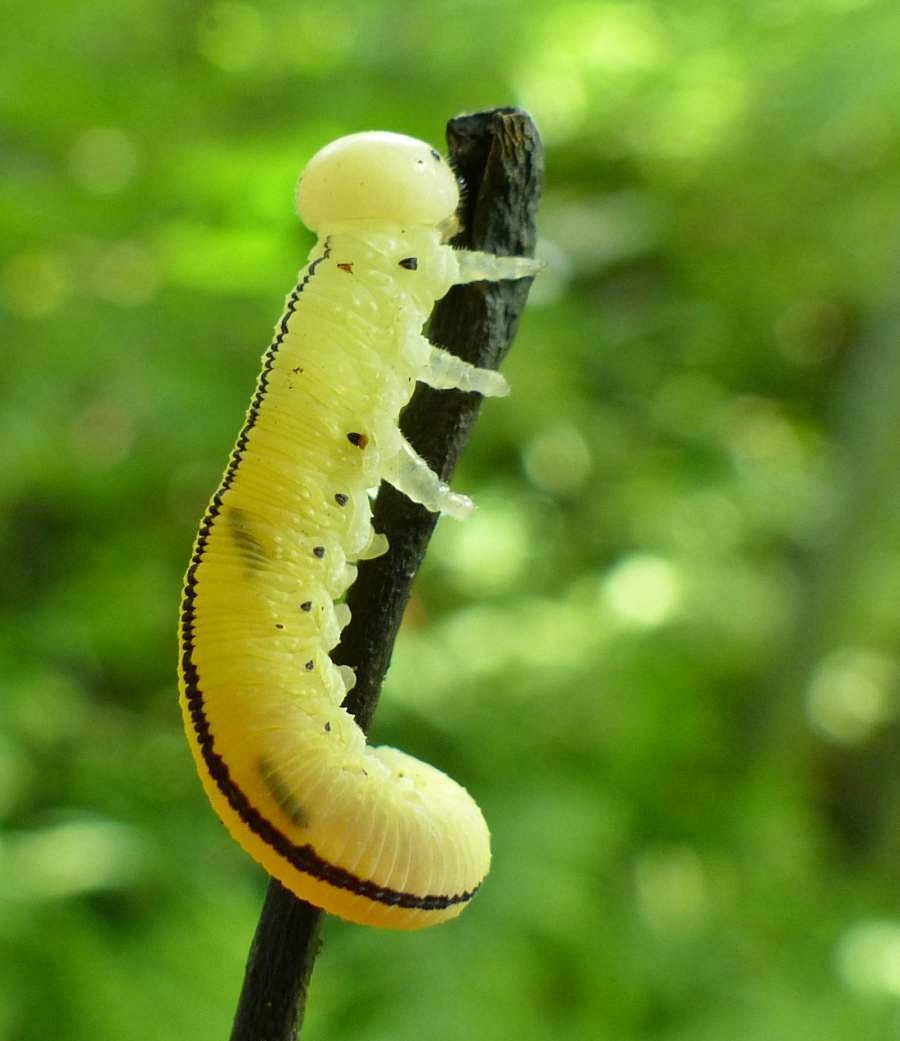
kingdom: Animalia
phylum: Arthropoda
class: Insecta
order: Hymenoptera
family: Cimbicidae
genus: Cimbex
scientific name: Cimbex americana
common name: Elm sawfly
